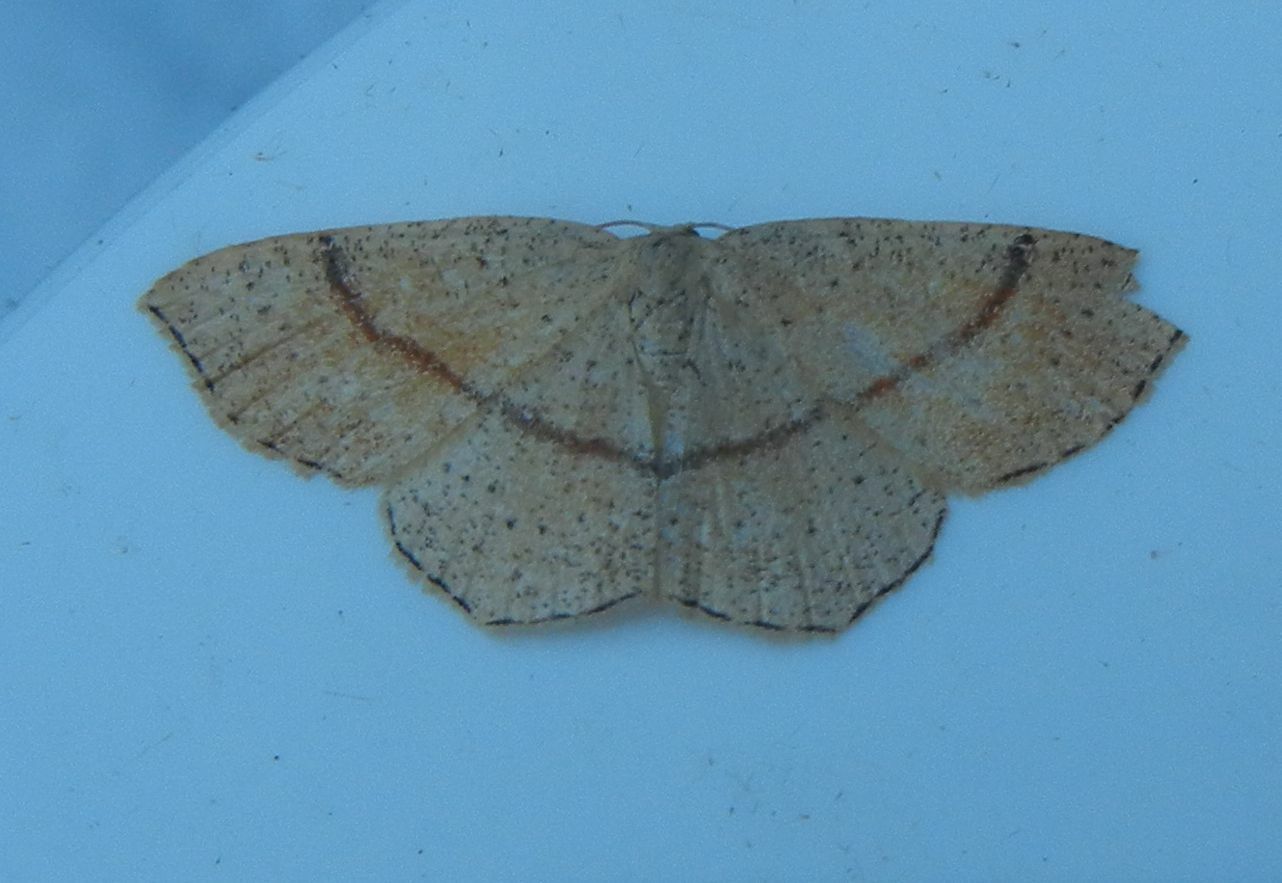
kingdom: Animalia
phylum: Arthropoda
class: Insecta
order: Lepidoptera
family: Geometridae
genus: Cyclophora
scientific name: Cyclophora punctaria
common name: Maiden's blush
